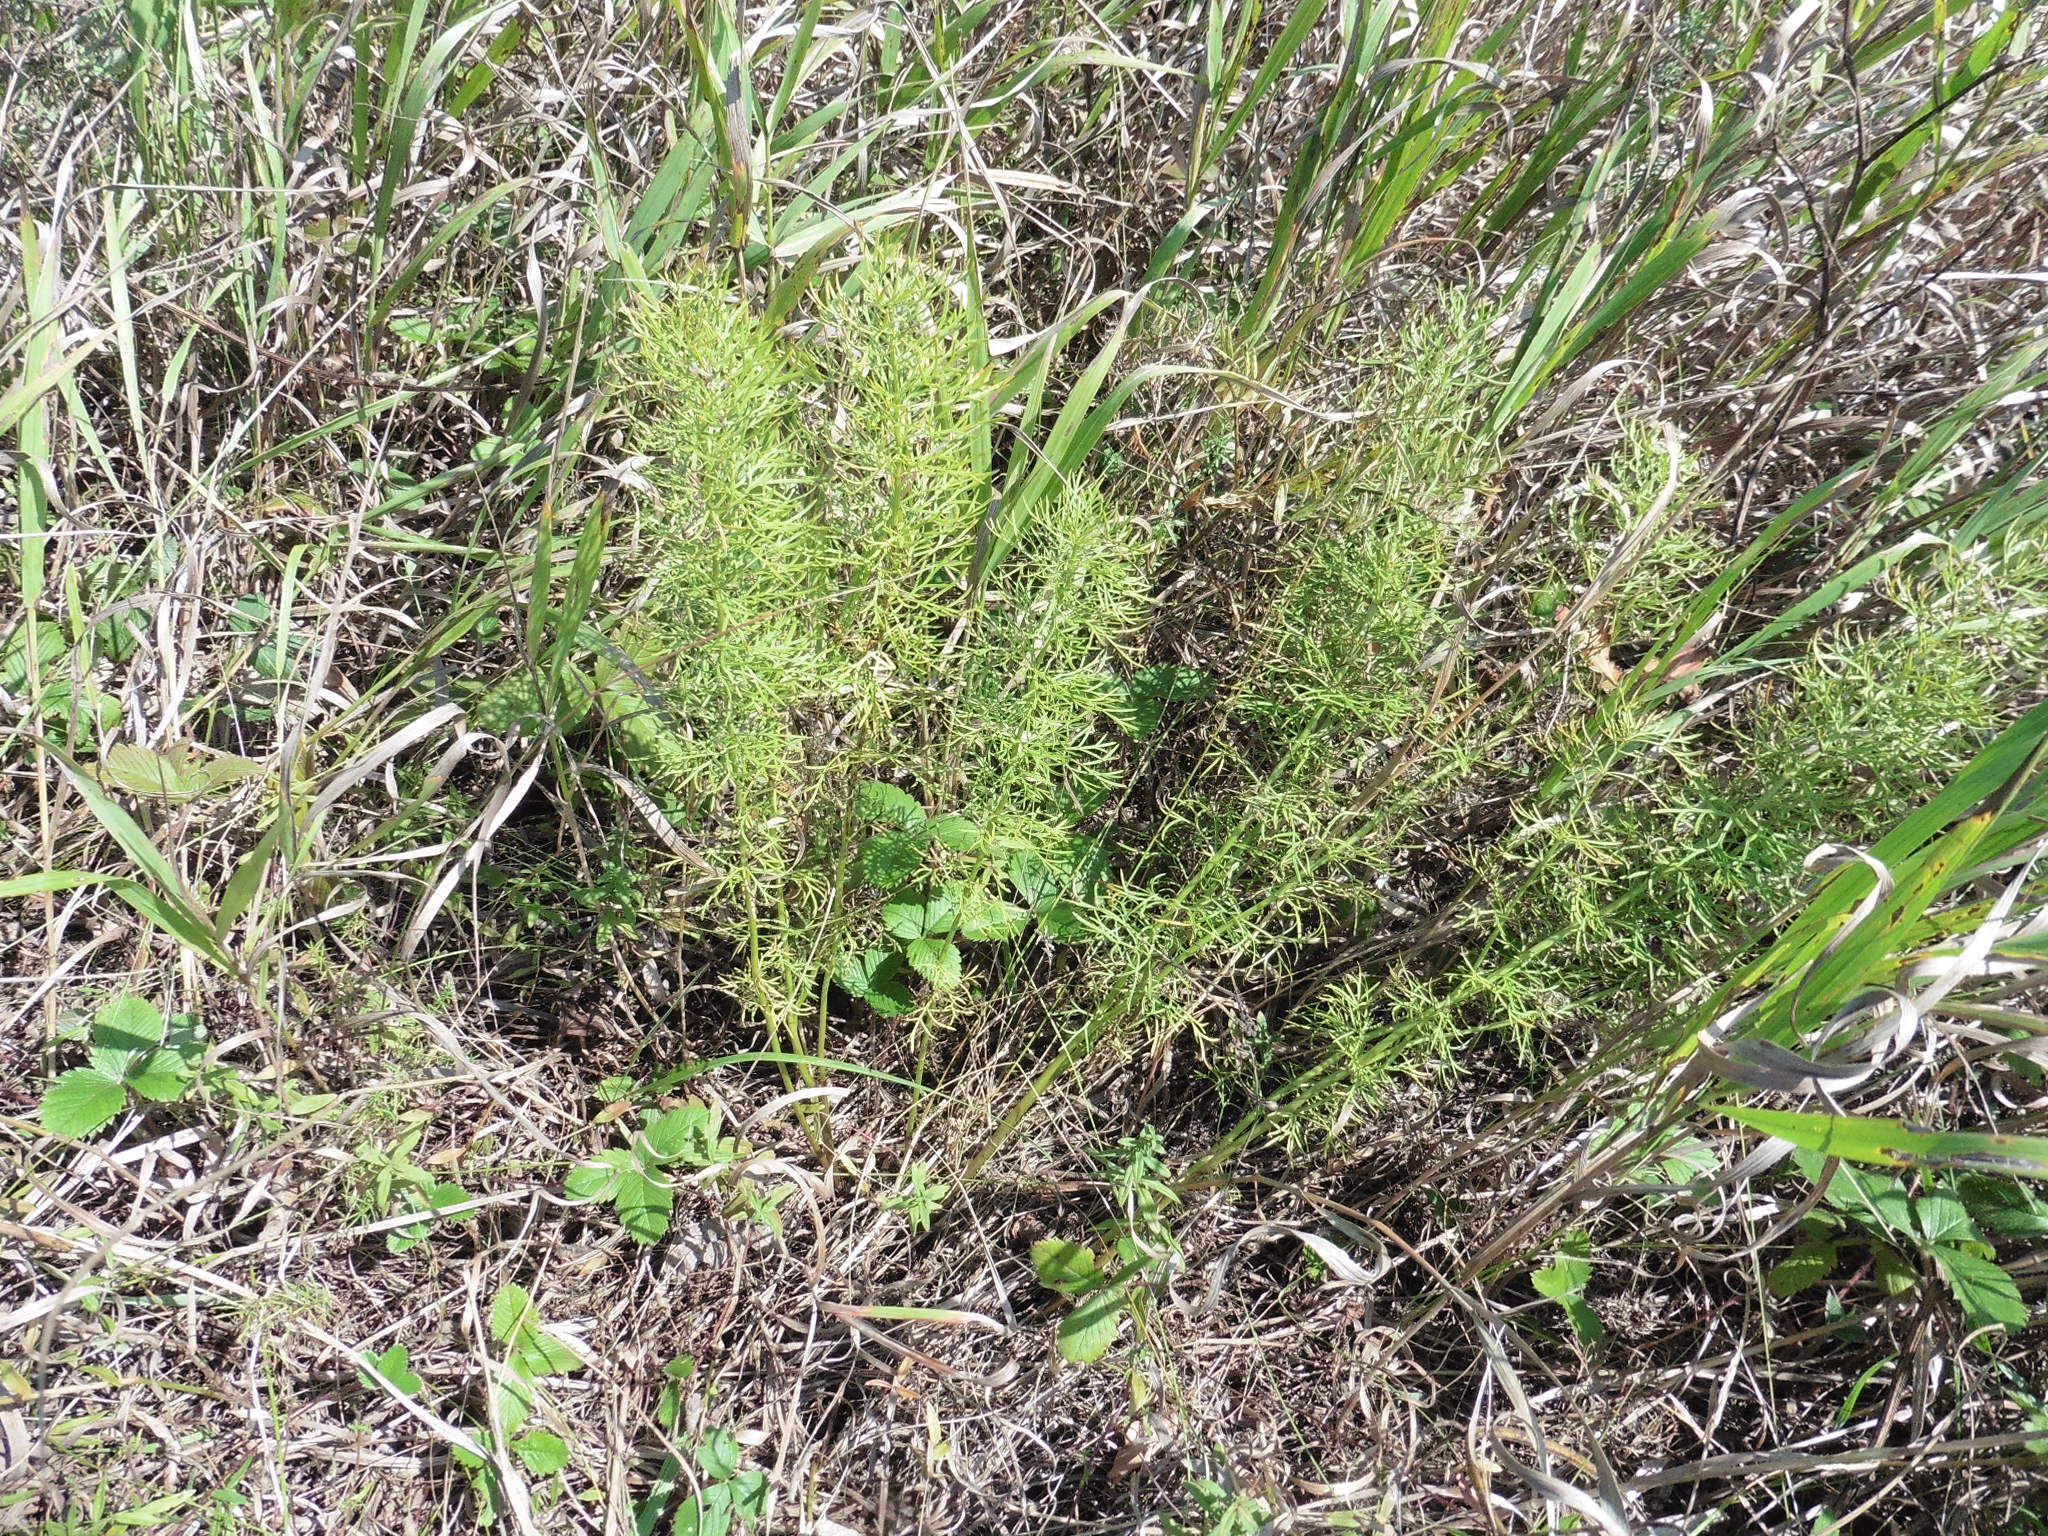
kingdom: Plantae
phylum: Tracheophyta
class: Magnoliopsida
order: Ranunculales
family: Ranunculaceae
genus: Adonis
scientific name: Adonis vernalis
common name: Yellow pheasants-eye
